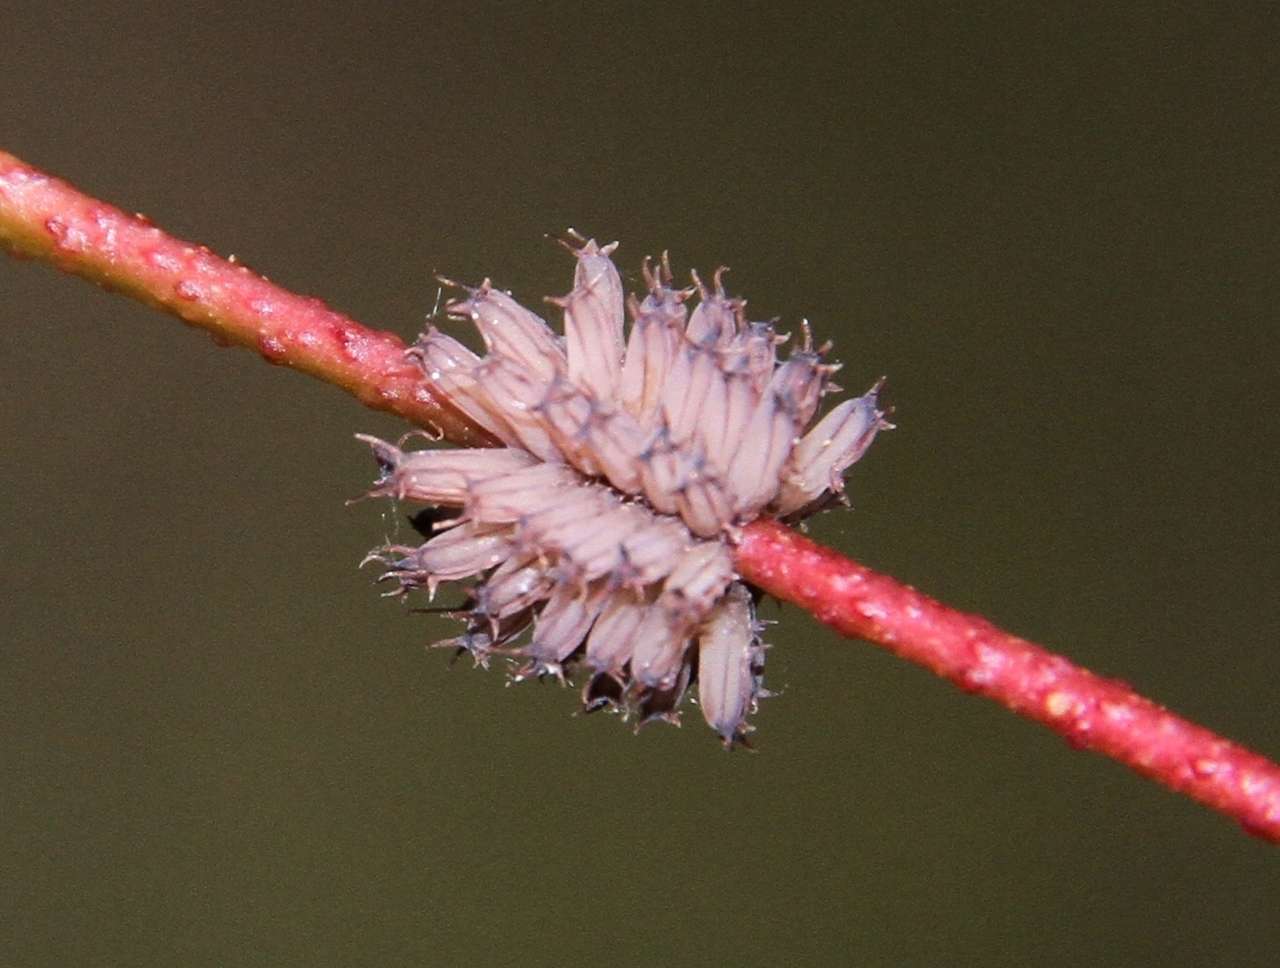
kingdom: Animalia
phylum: Arthropoda
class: Insecta
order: Coleoptera
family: Chrysomelidae
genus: Paropsis
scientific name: Paropsis
